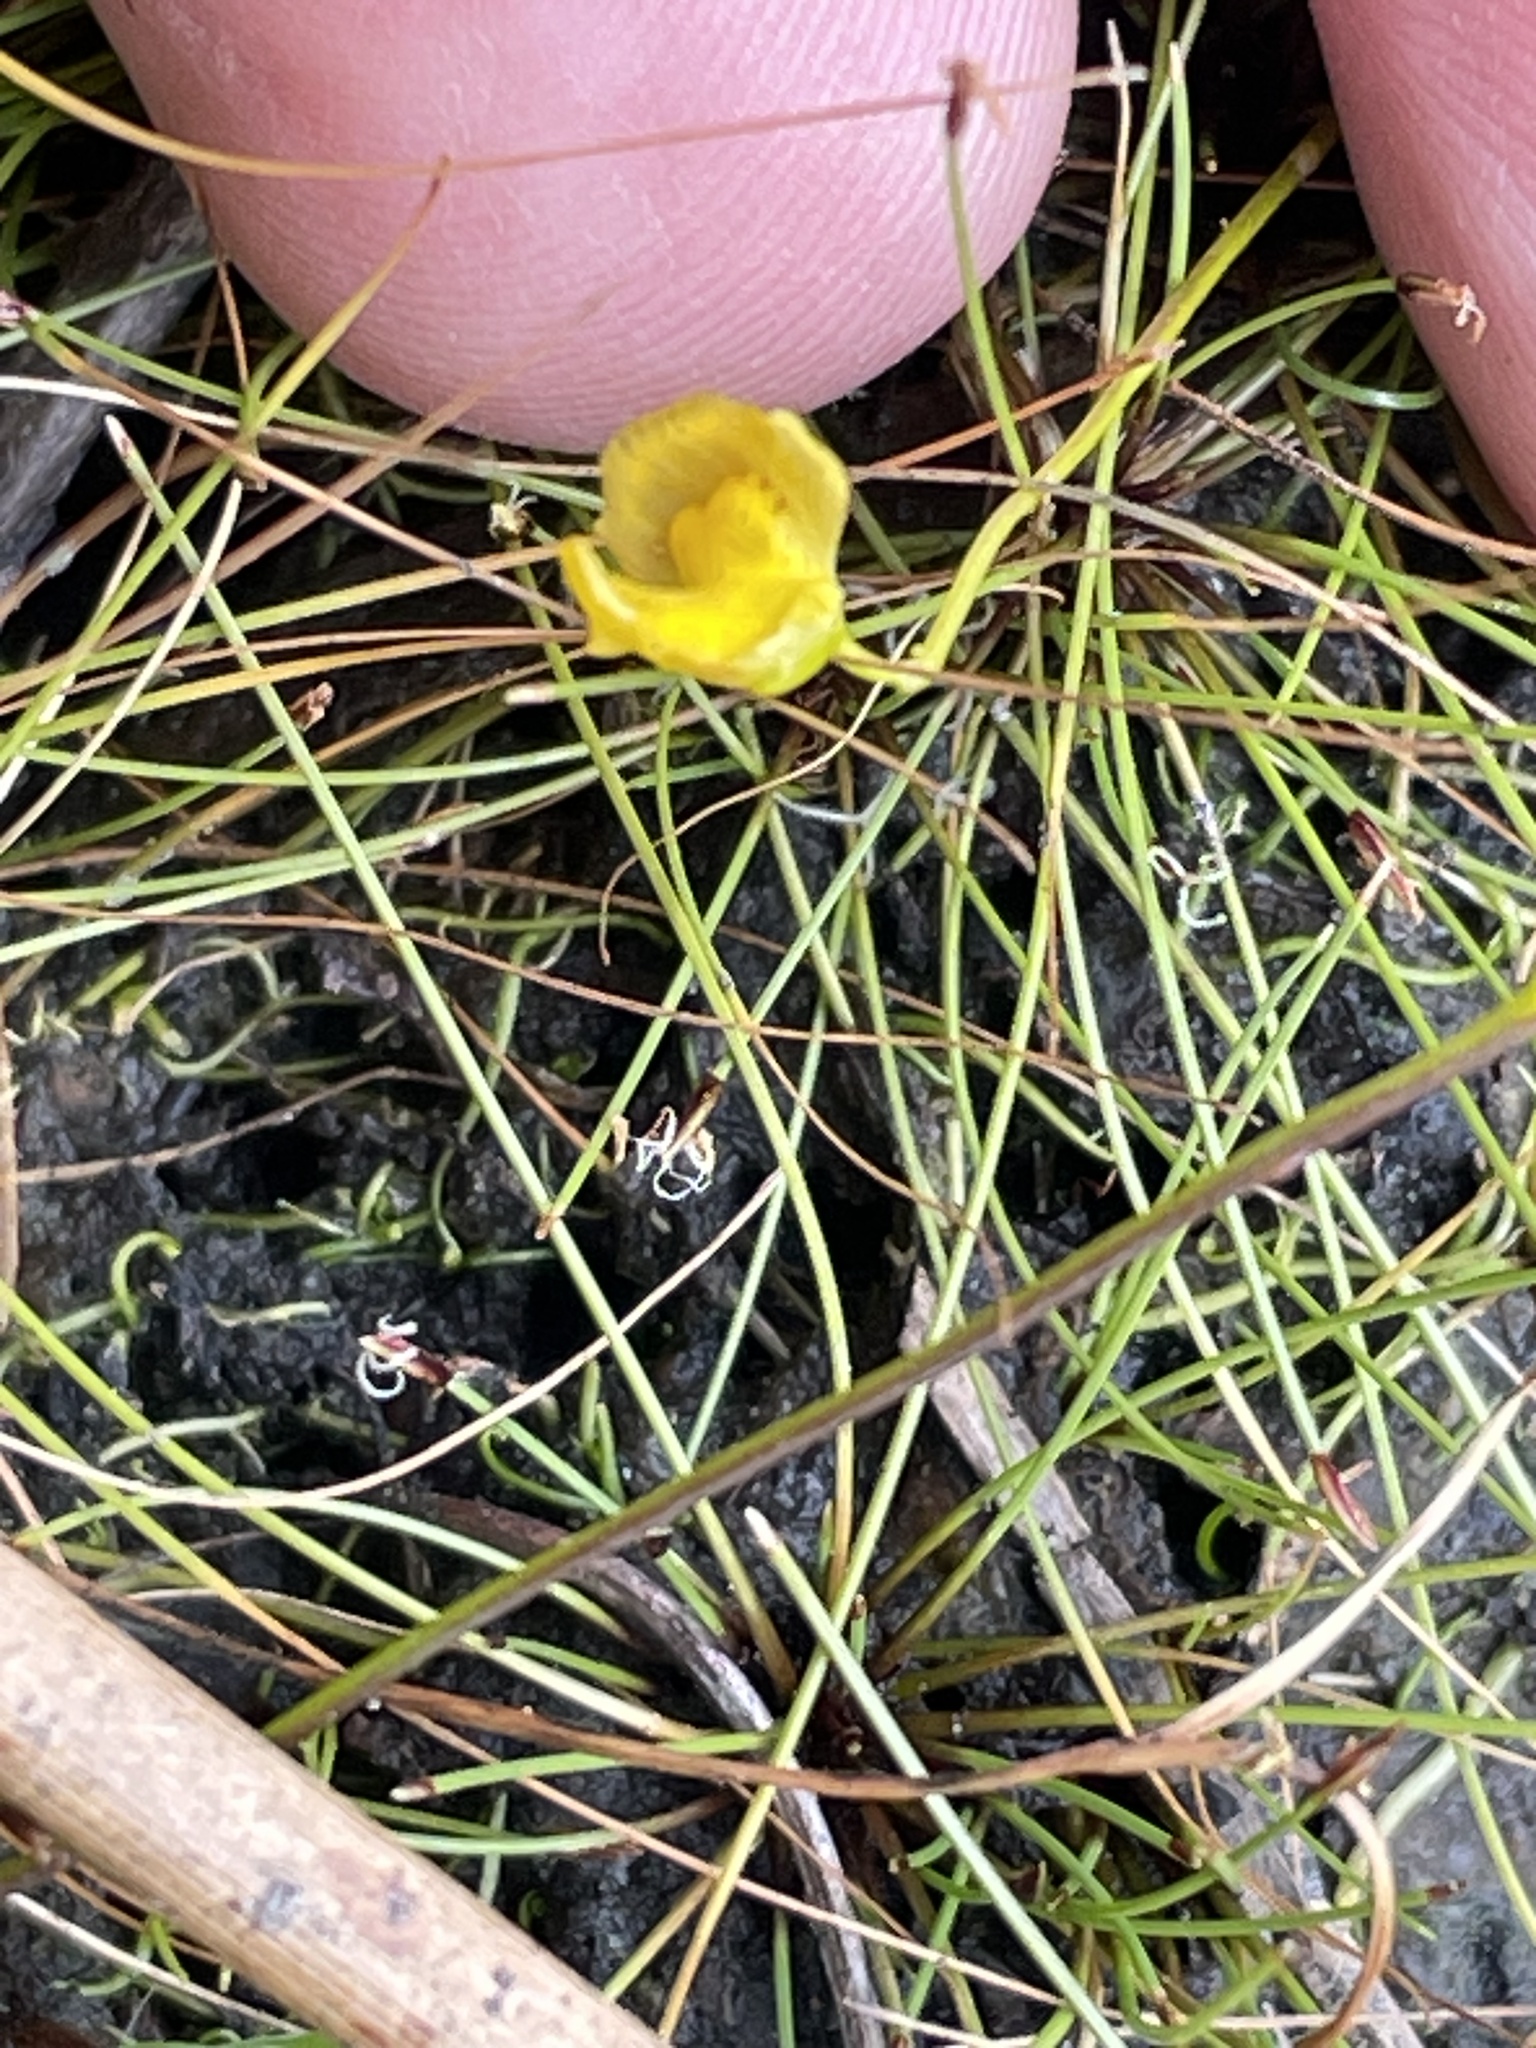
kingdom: Plantae
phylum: Tracheophyta
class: Magnoliopsida
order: Lamiales
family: Lentibulariaceae
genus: Utricularia
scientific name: Utricularia gibba
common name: Humped bladderwort
